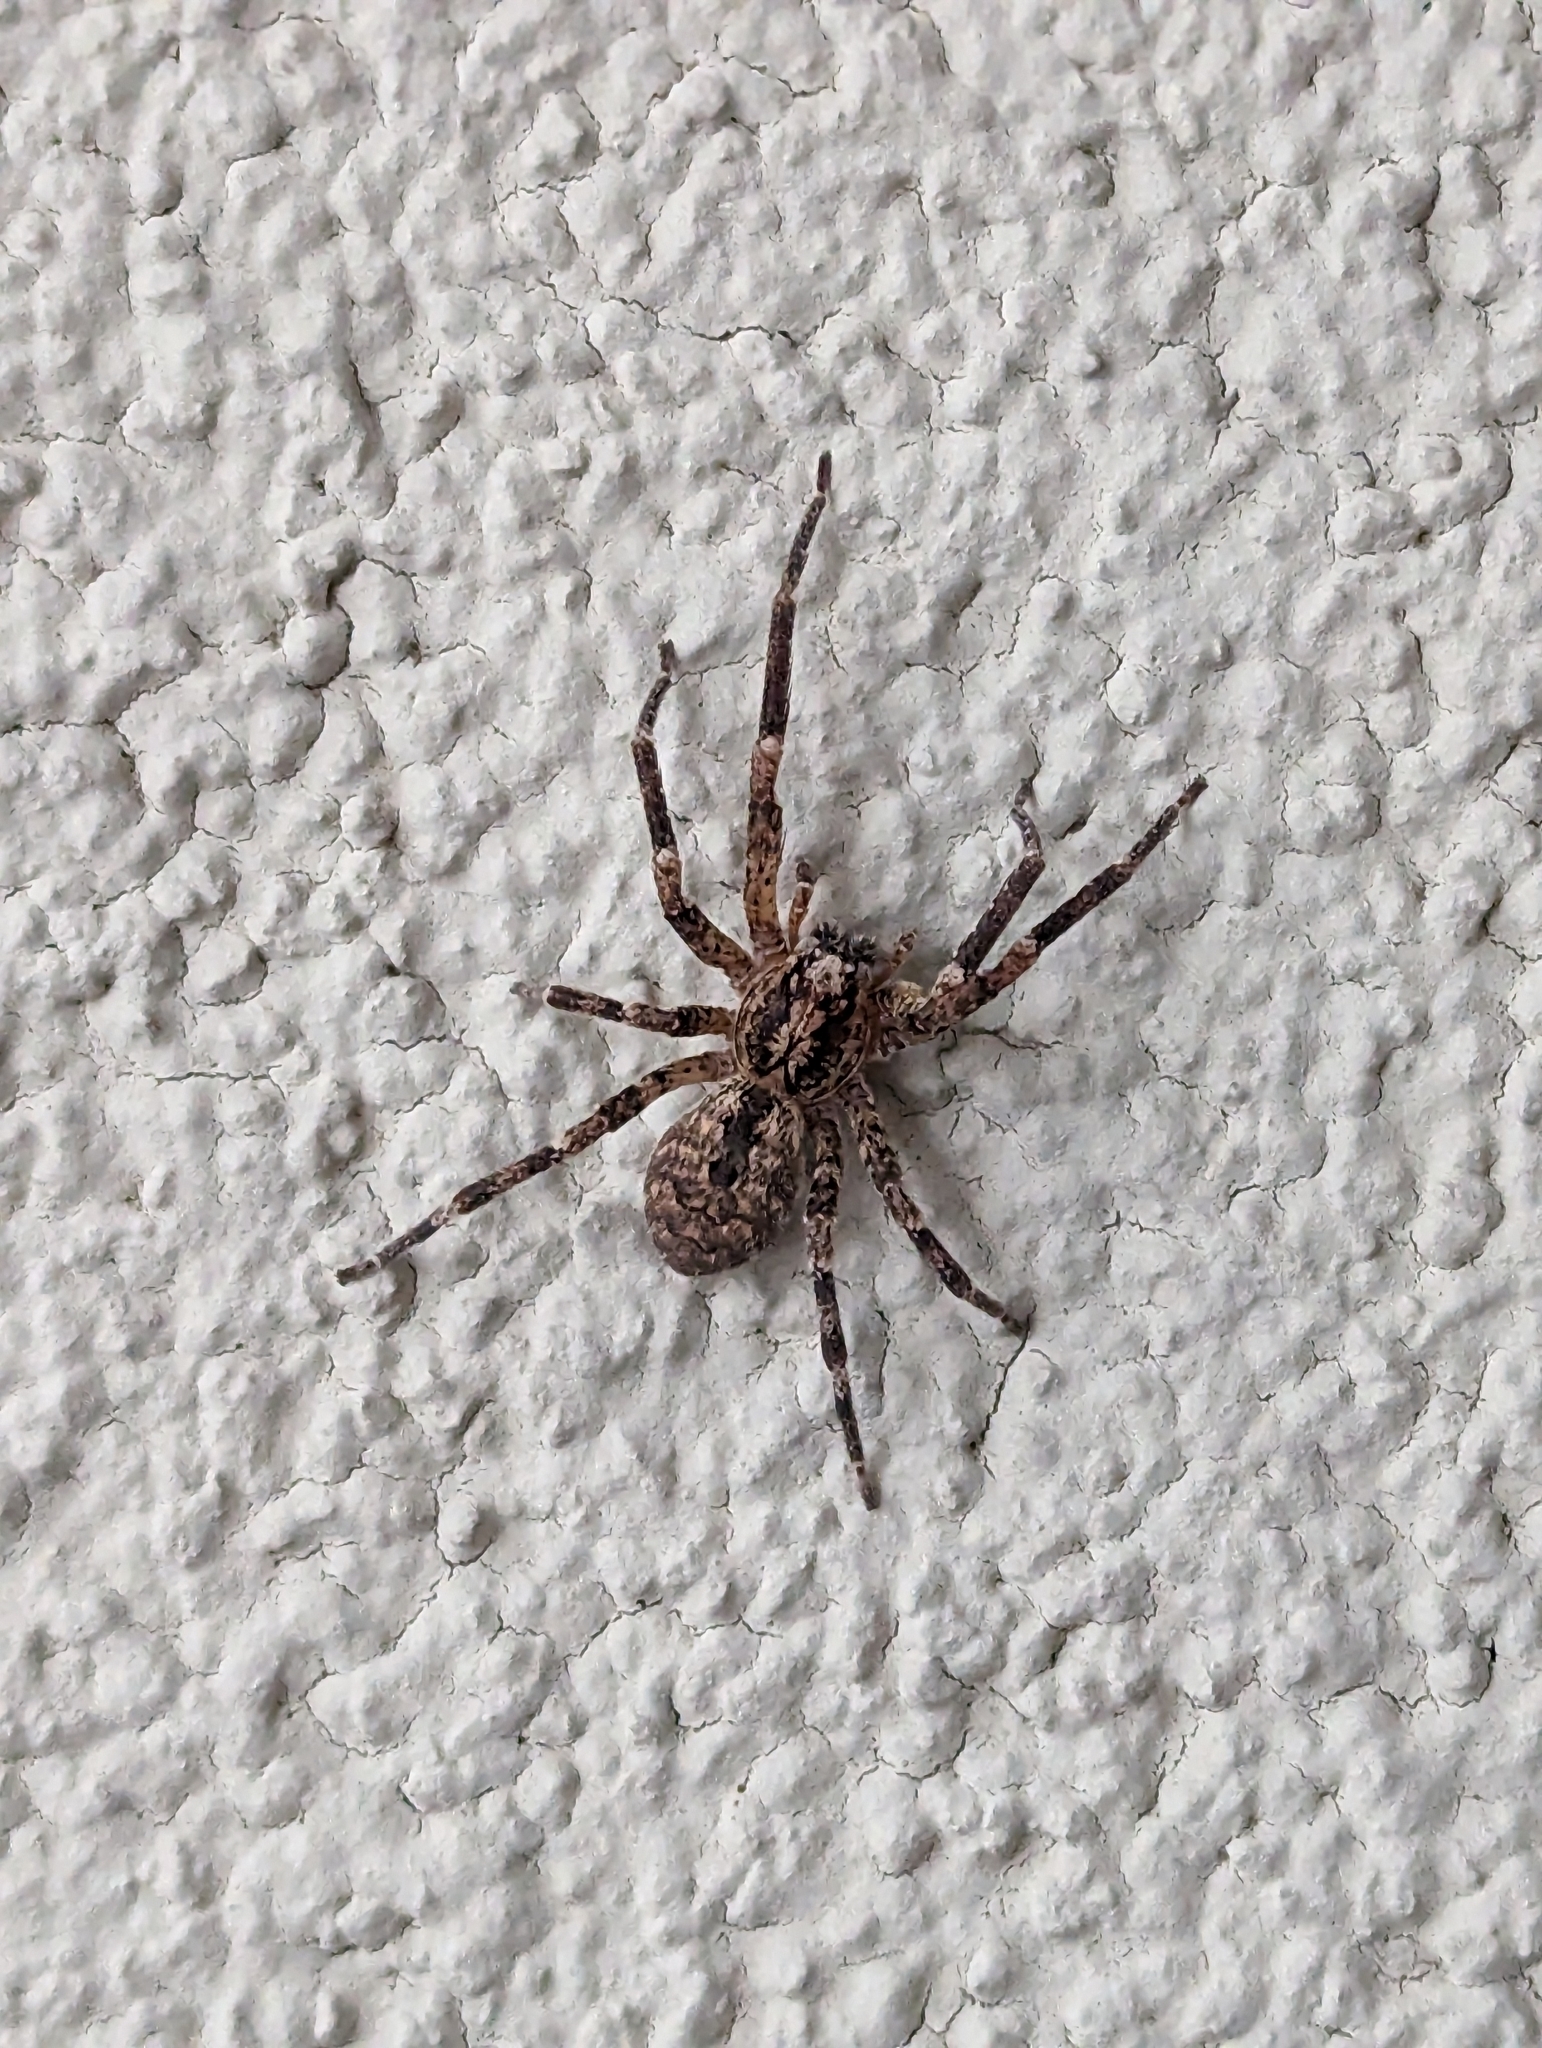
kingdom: Animalia
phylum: Arthropoda
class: Arachnida
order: Araneae
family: Zoropsidae
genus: Zoropsis
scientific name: Zoropsis spinimana
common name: Zoropsid spider
